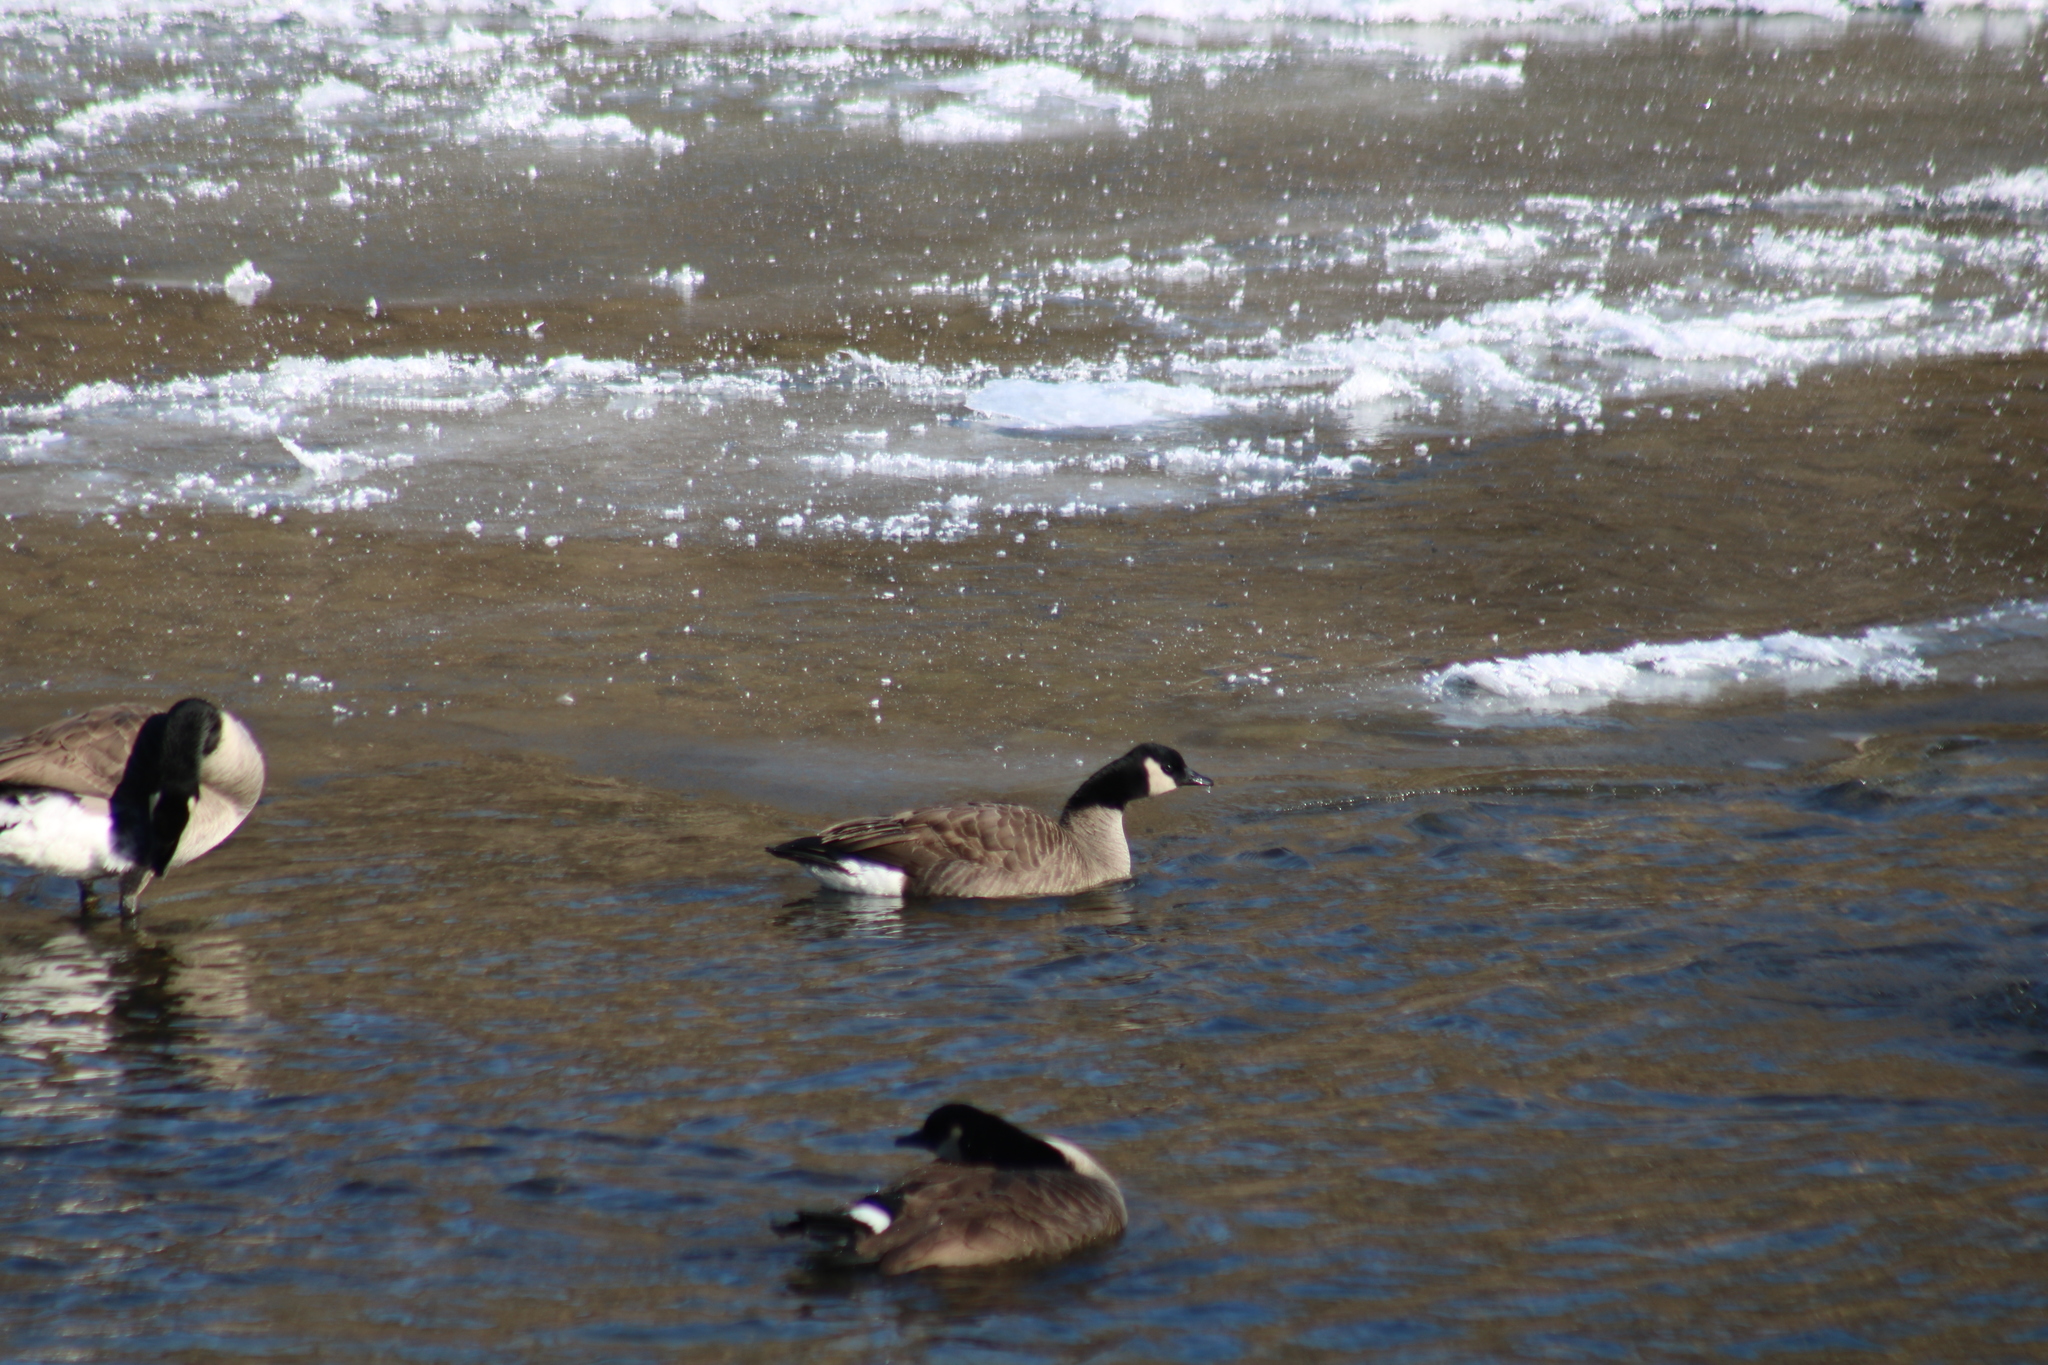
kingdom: Animalia
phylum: Chordata
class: Aves
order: Anseriformes
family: Anatidae
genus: Branta
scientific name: Branta canadensis
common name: Canada goose
